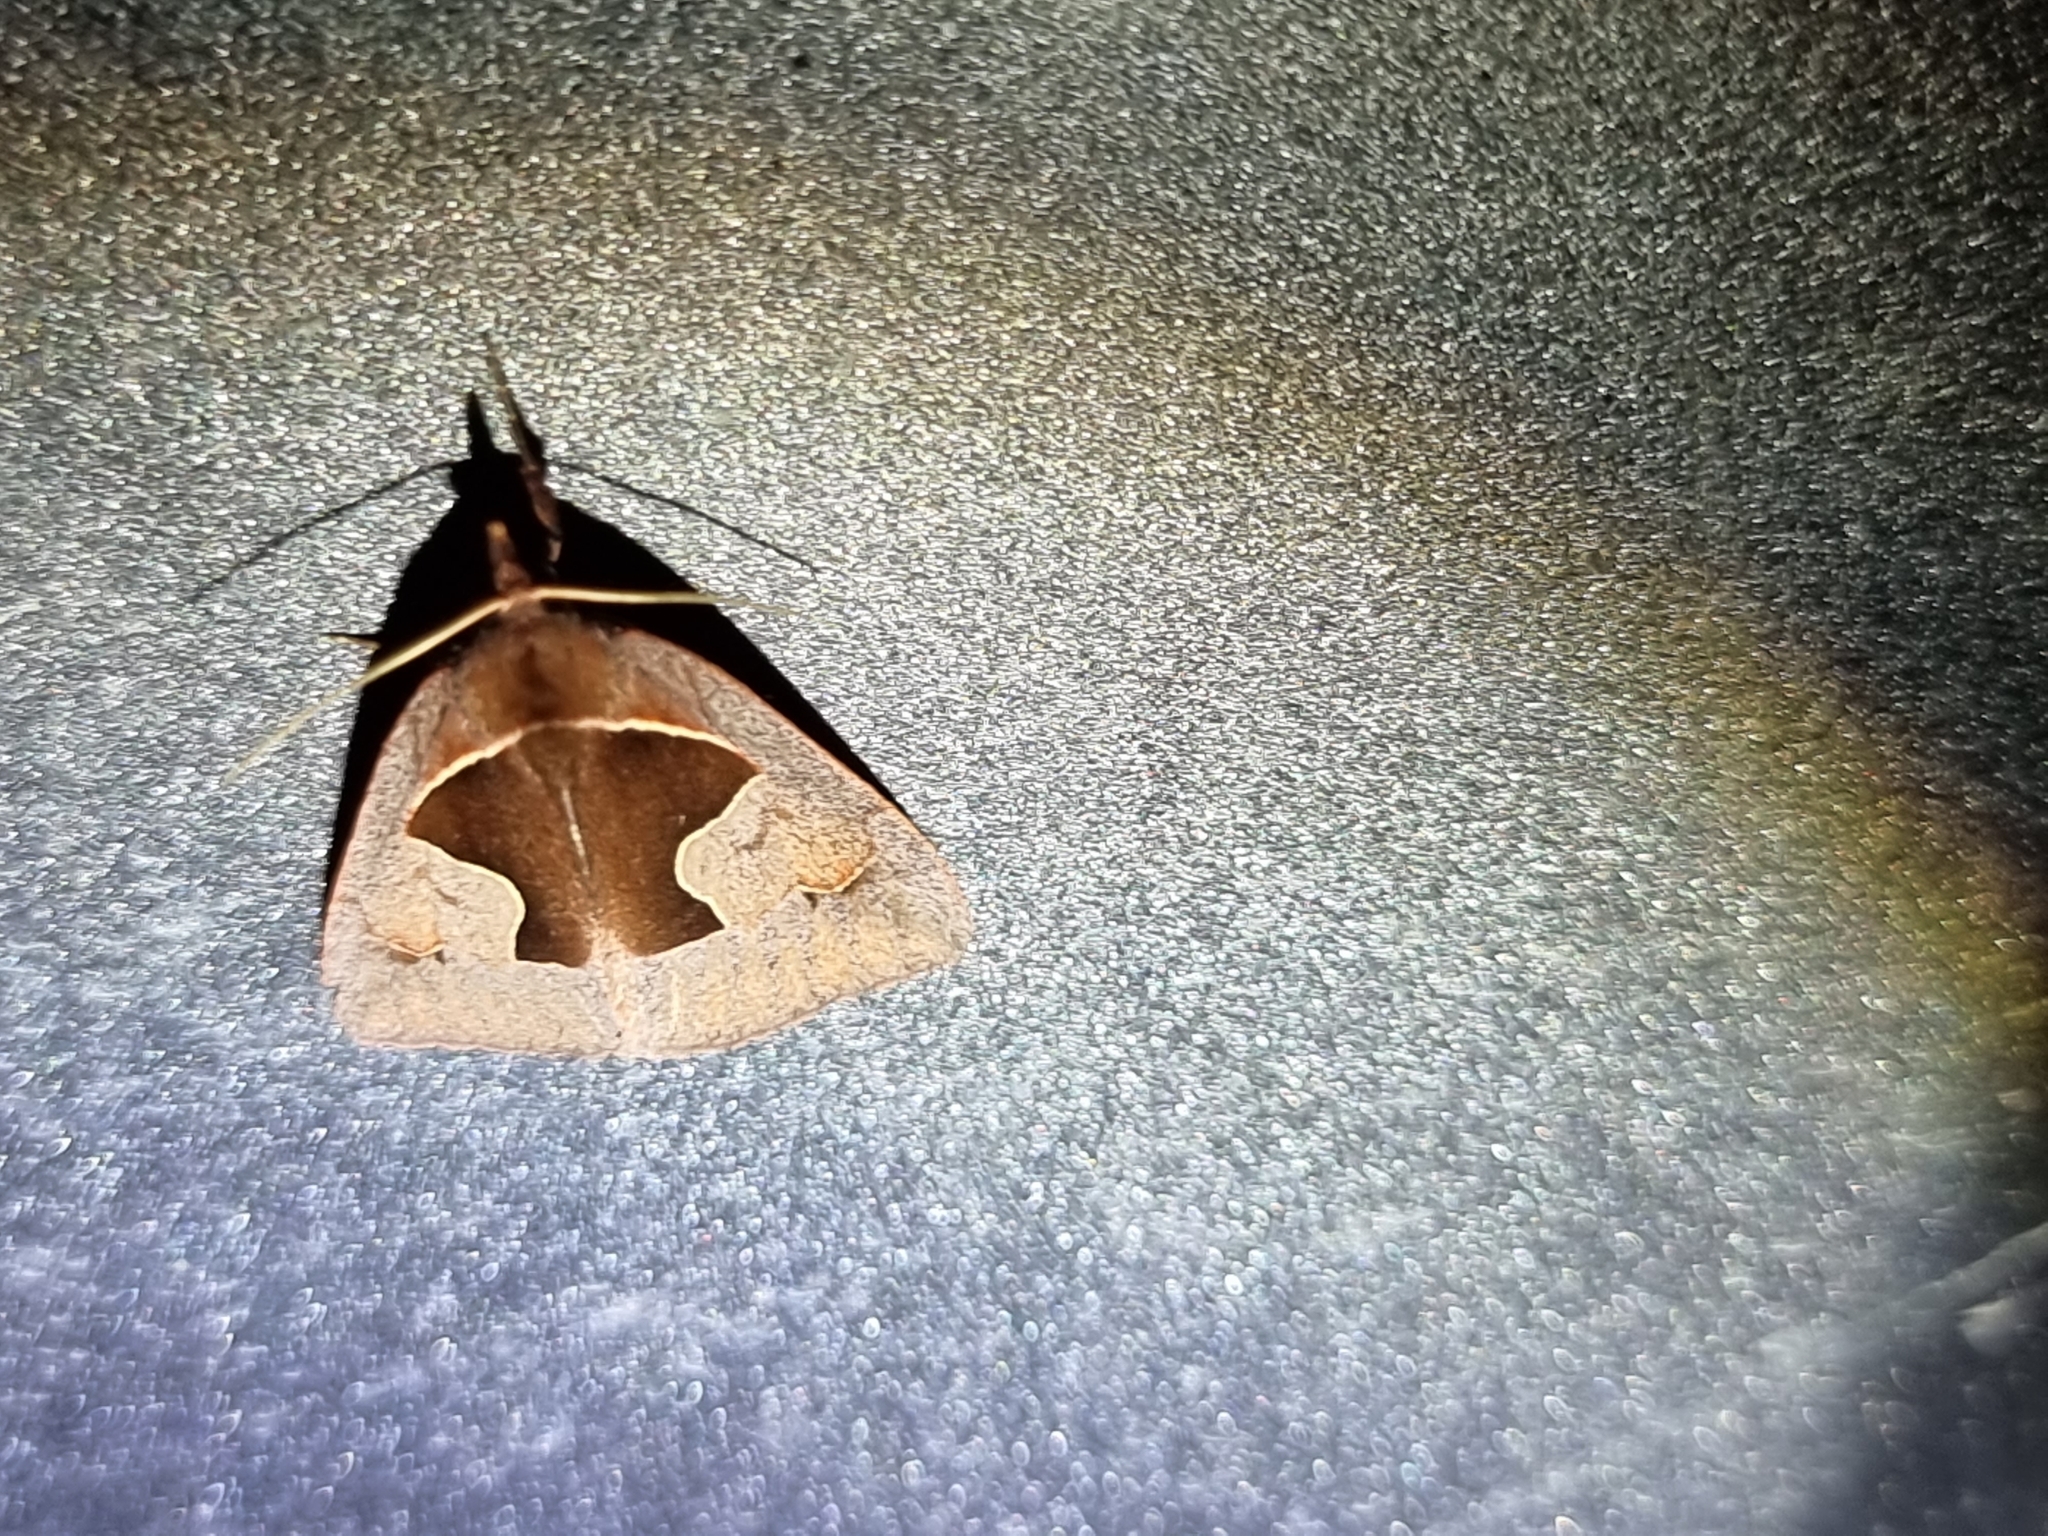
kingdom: Animalia
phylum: Arthropoda
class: Insecta
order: Lepidoptera
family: Erebidae
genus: Agamana
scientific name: Agamana cavatalis
